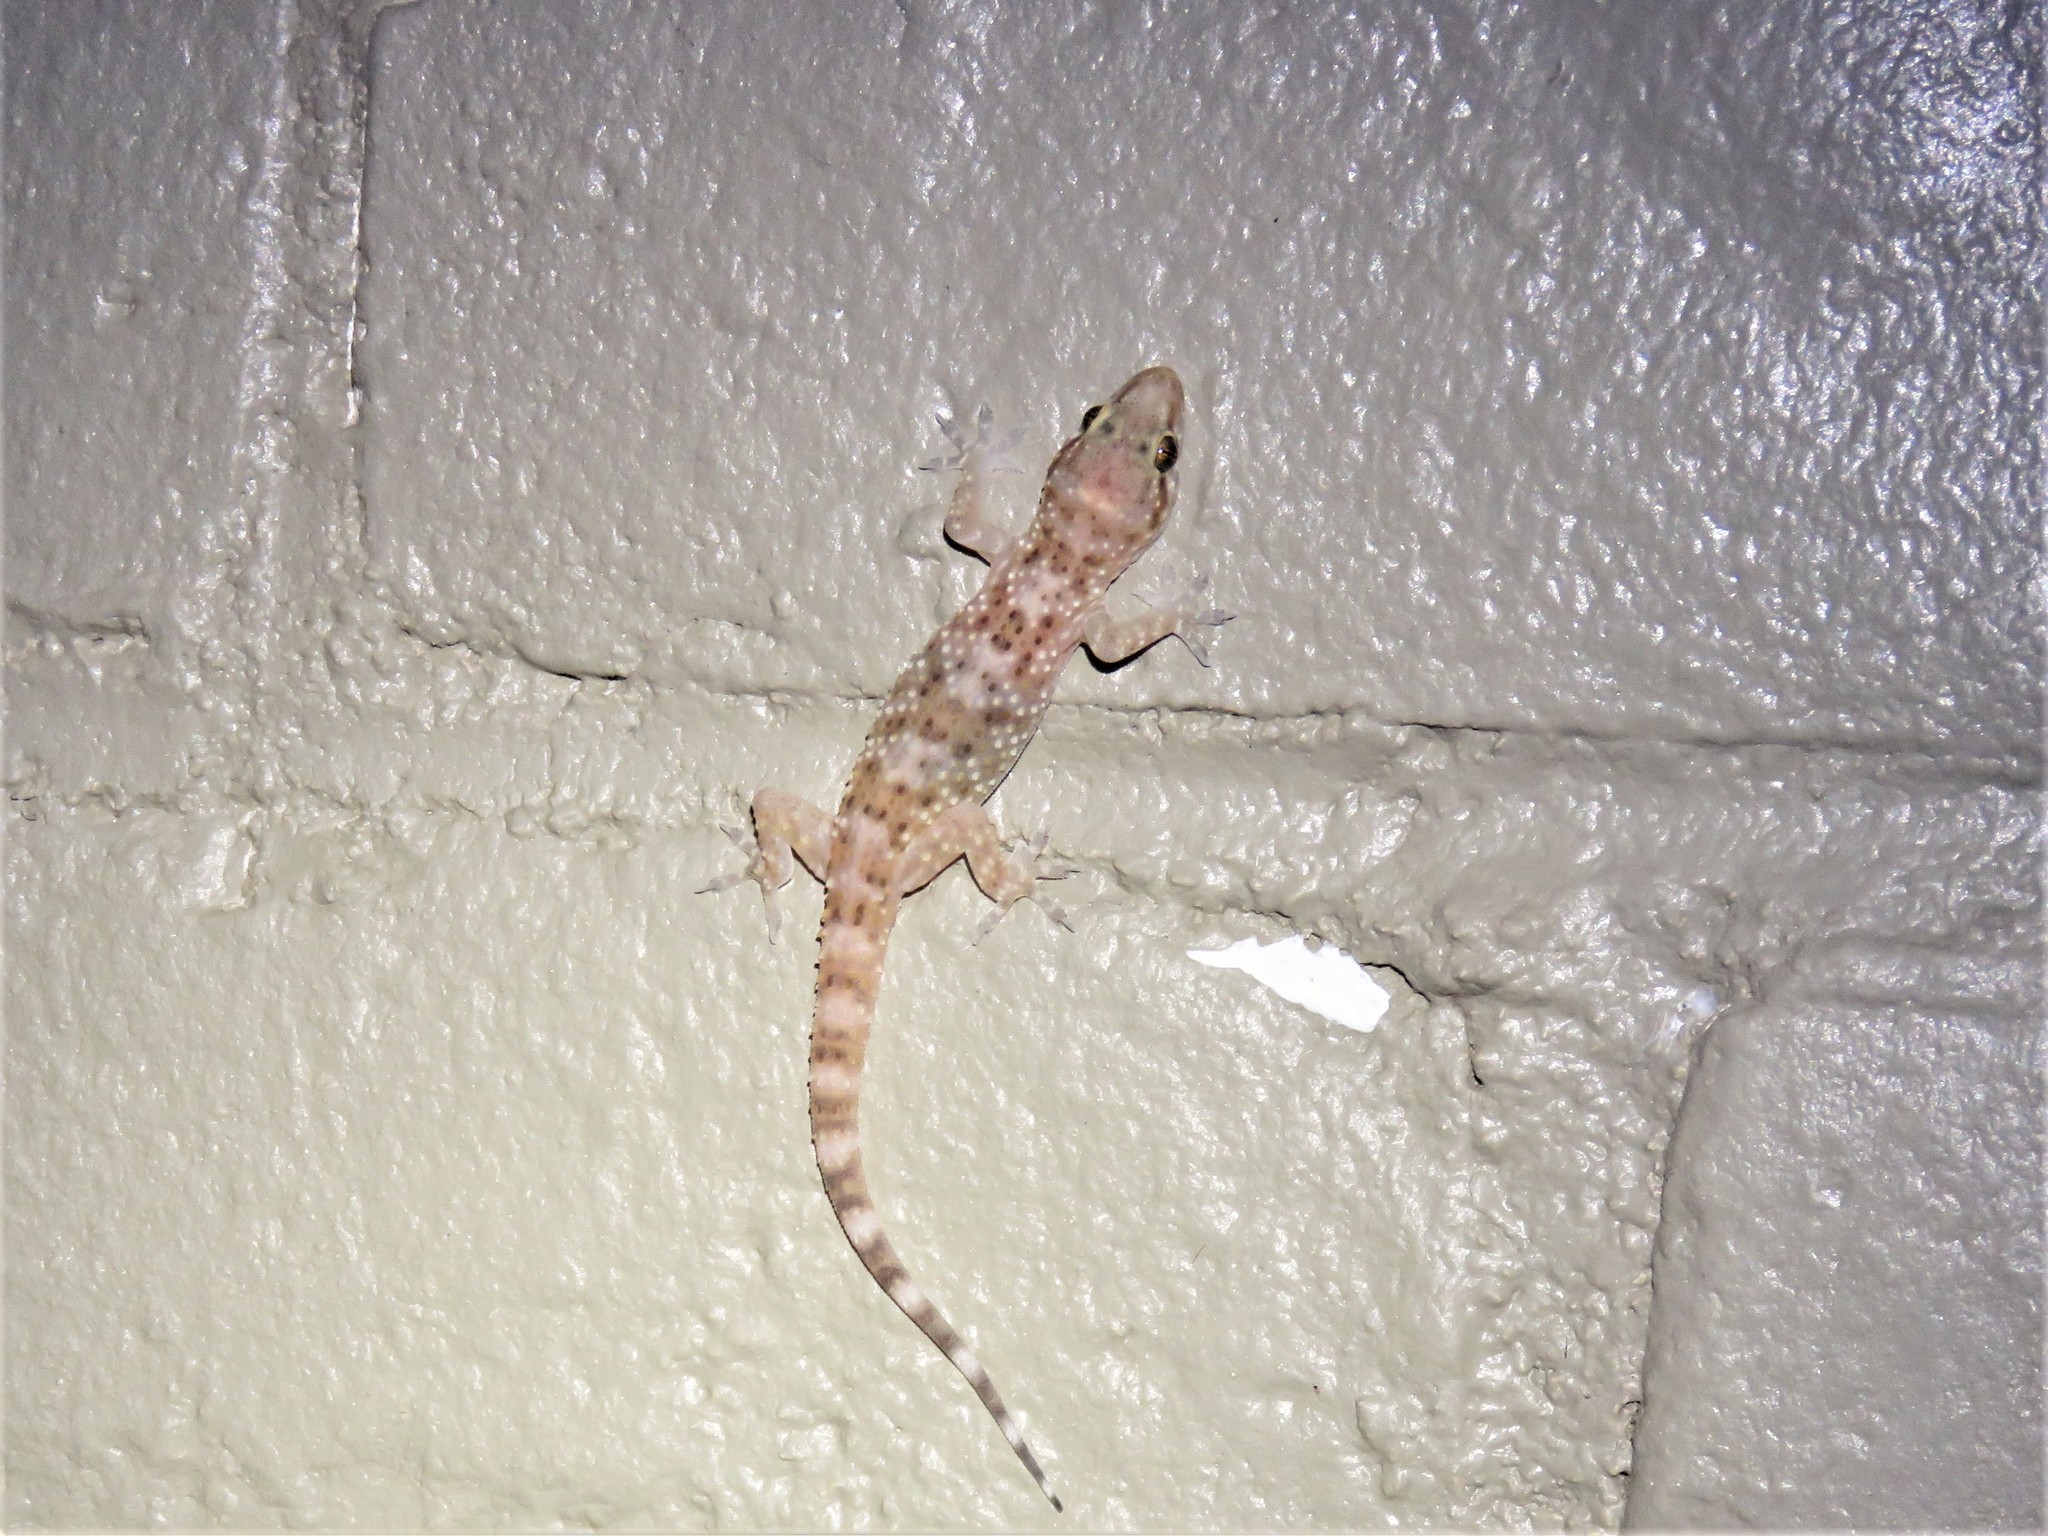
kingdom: Animalia
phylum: Chordata
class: Squamata
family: Gekkonidae
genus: Hemidactylus
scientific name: Hemidactylus turcicus
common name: Turkish gecko
